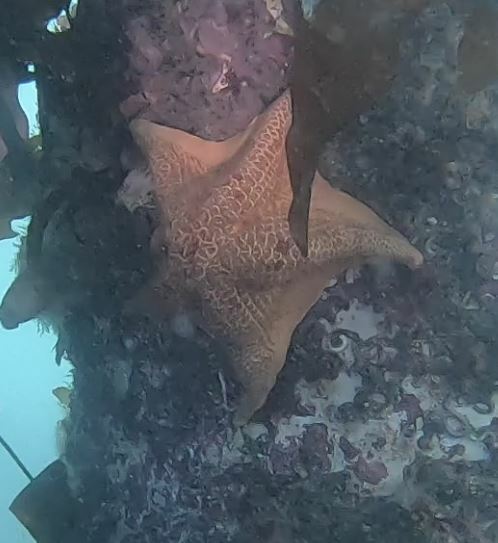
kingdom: Animalia
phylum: Echinodermata
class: Asteroidea
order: Valvatida
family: Asterinidae
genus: Patiria
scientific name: Patiria miniata
